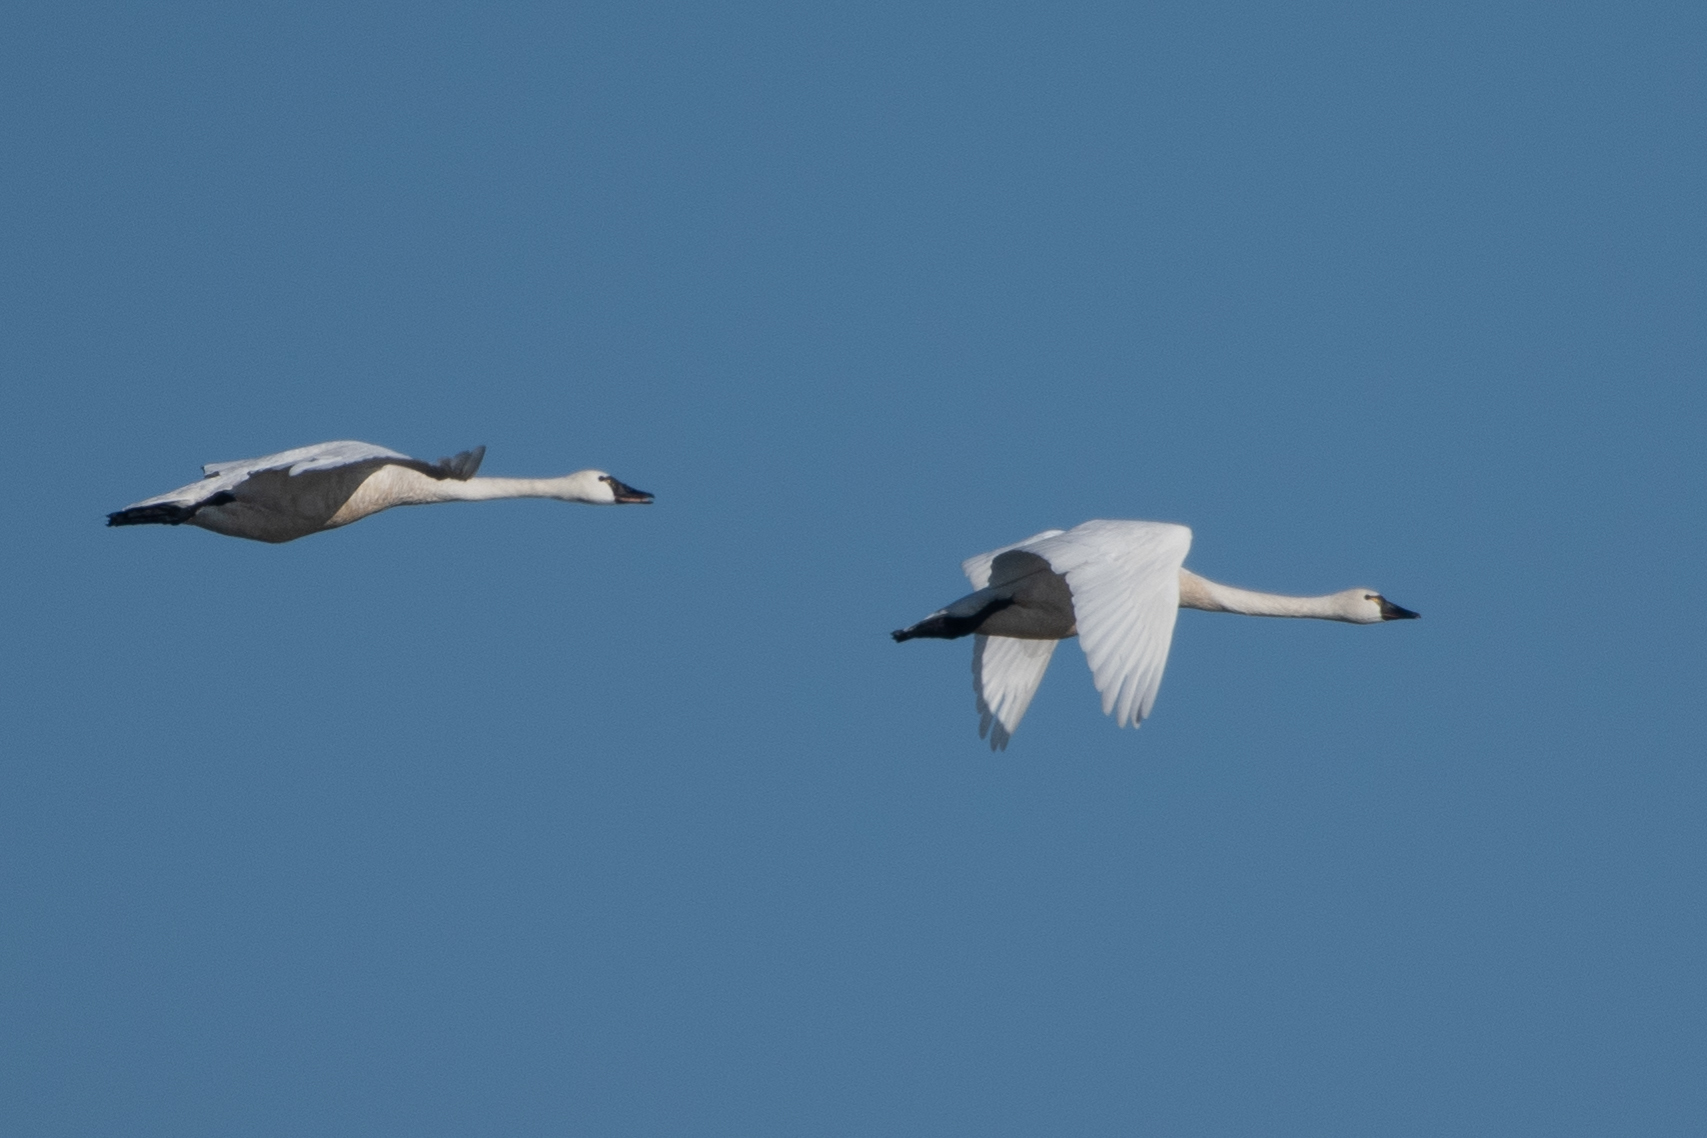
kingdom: Animalia
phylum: Chordata
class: Aves
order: Anseriformes
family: Anatidae
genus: Cygnus
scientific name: Cygnus columbianus
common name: Tundra swan
